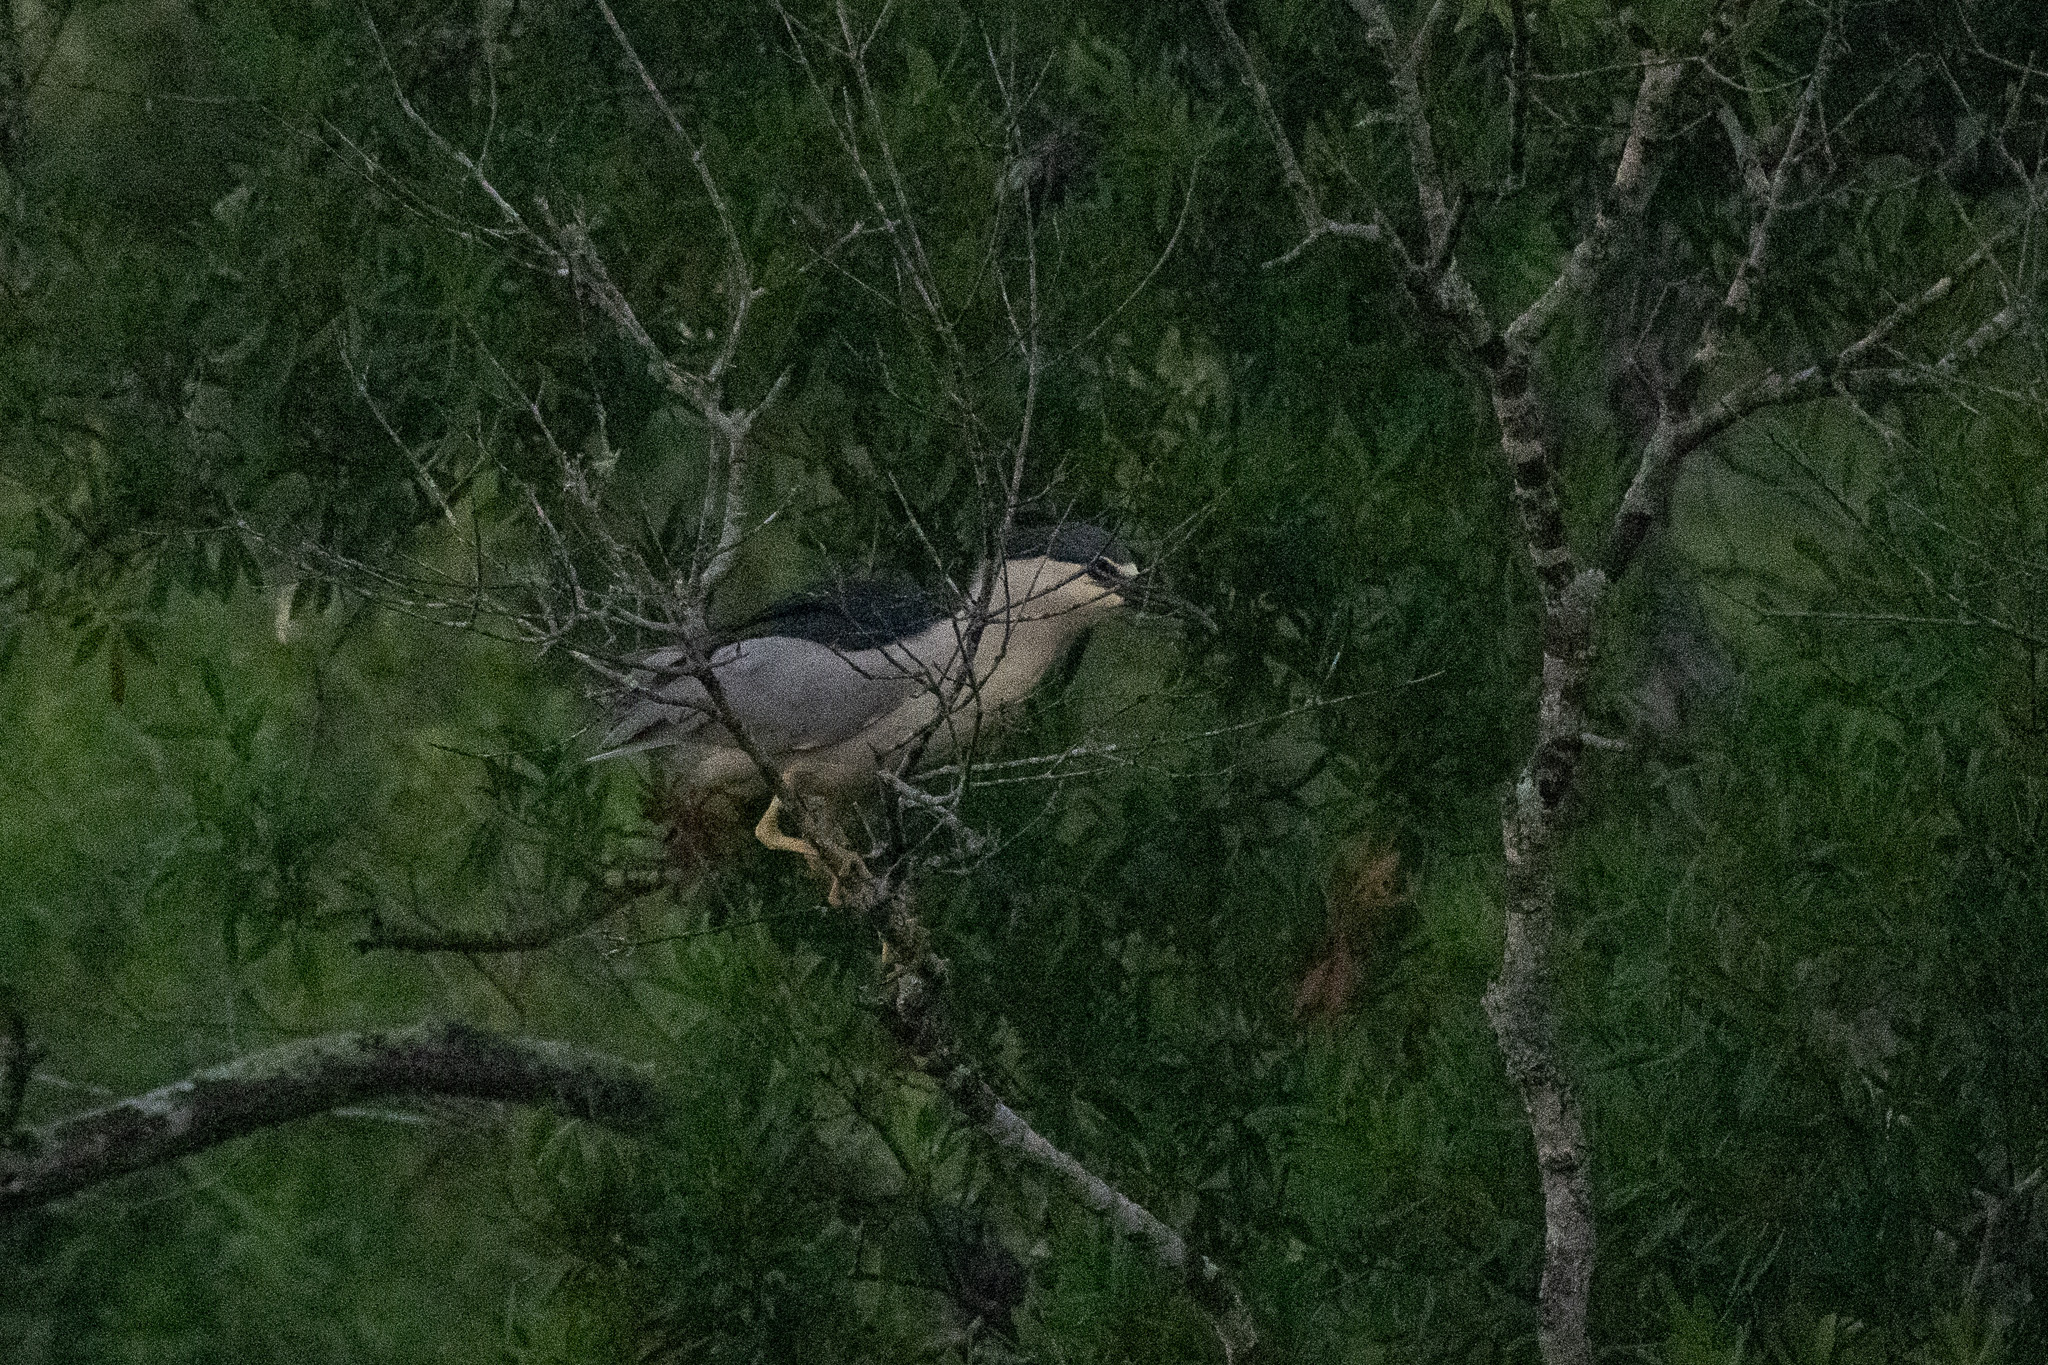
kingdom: Animalia
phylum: Chordata
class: Aves
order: Pelecaniformes
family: Ardeidae
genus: Nycticorax
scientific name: Nycticorax nycticorax
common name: Black-crowned night heron
